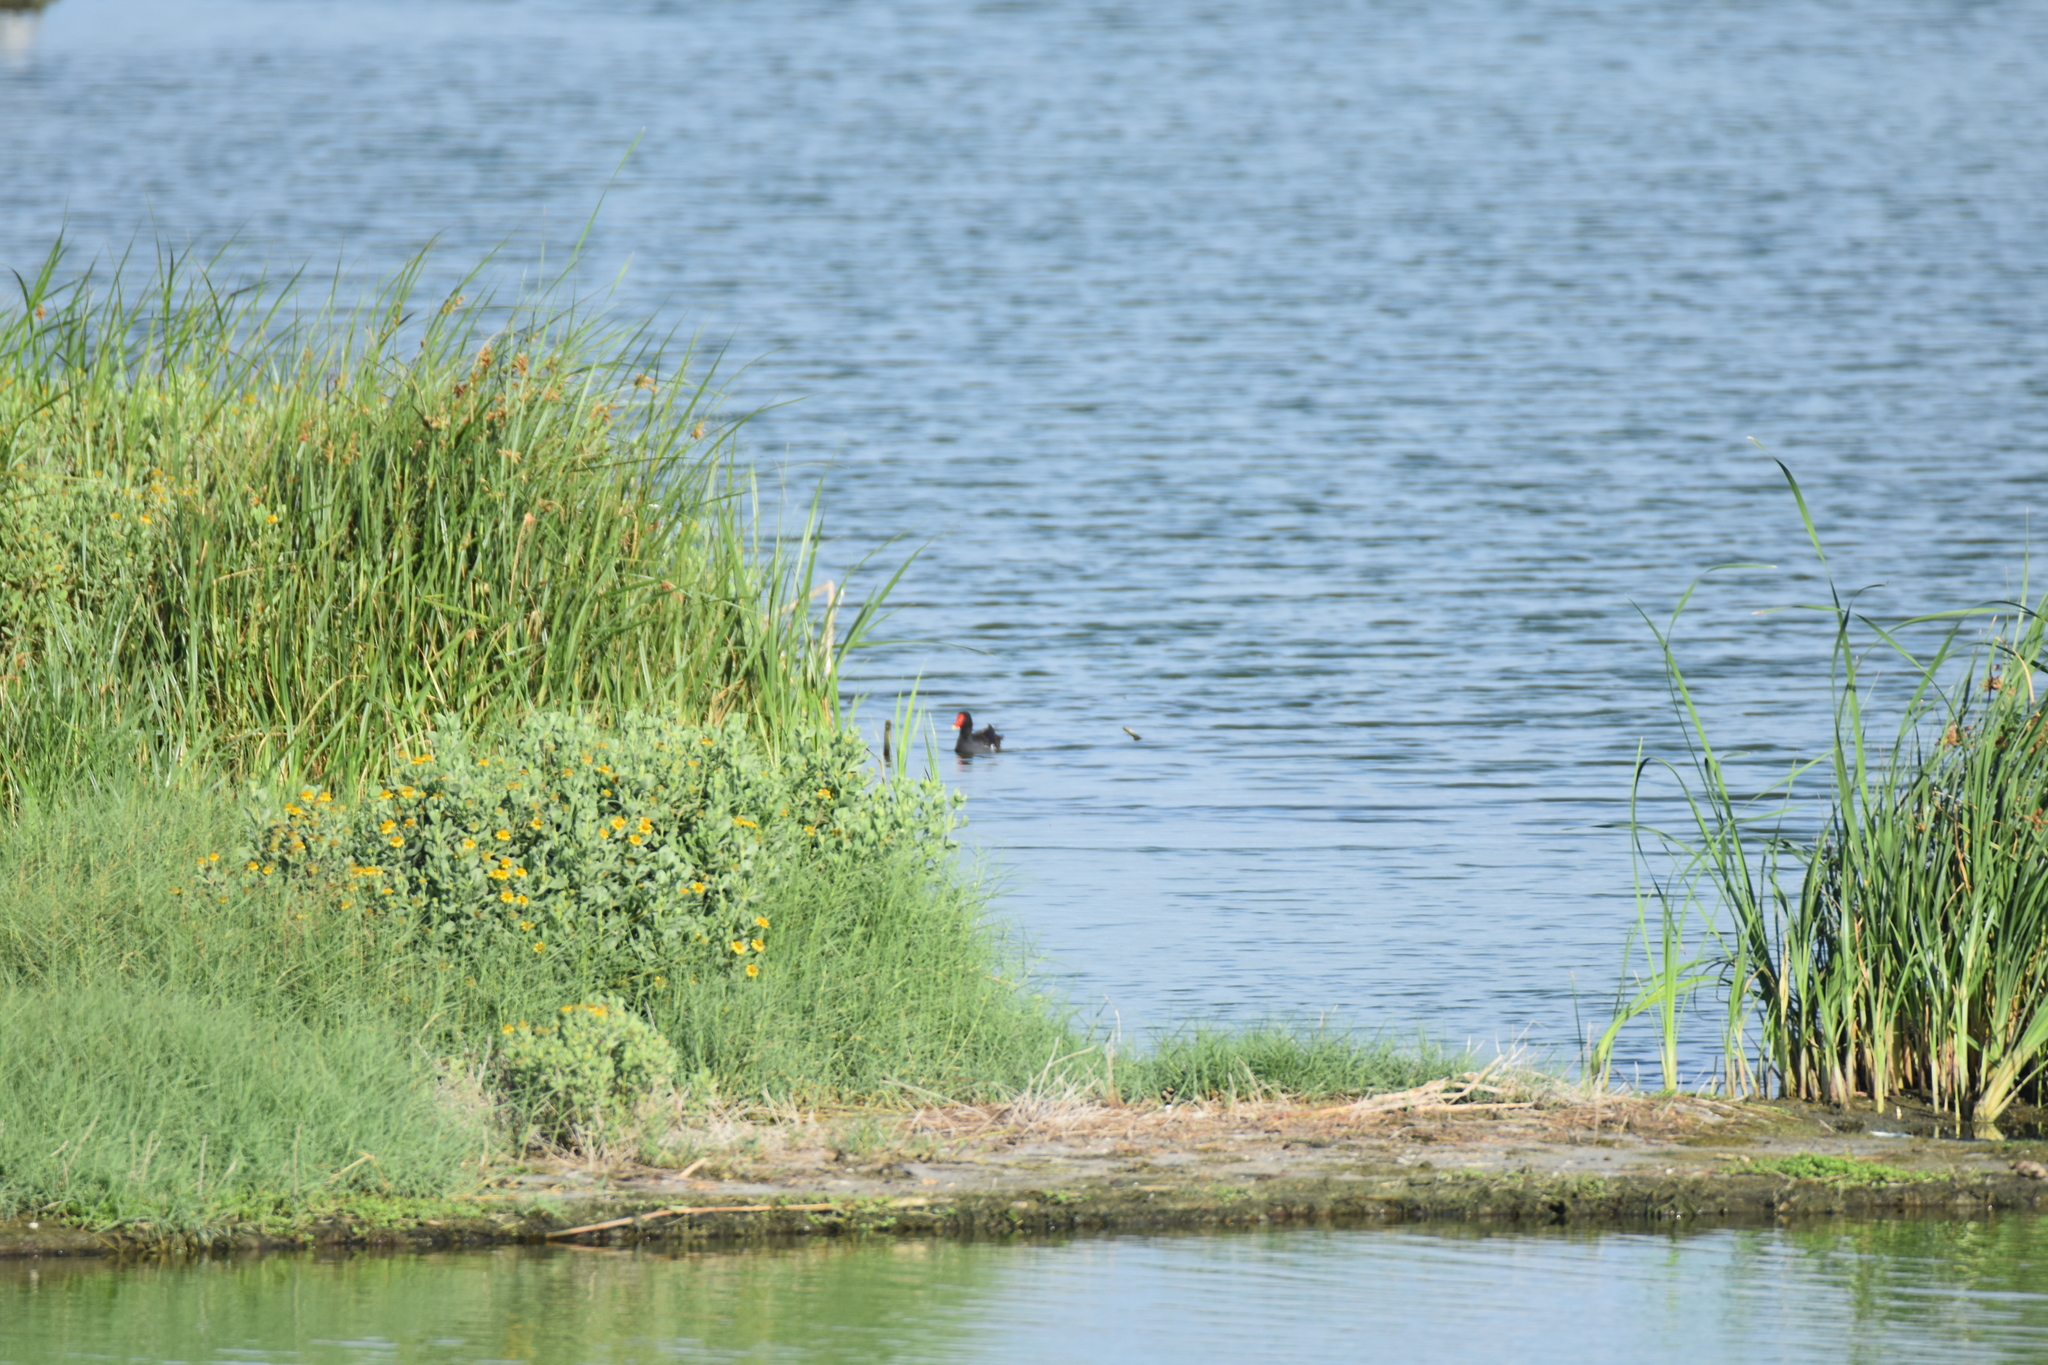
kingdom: Animalia
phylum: Chordata
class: Aves
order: Gruiformes
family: Rallidae
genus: Gallinula
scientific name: Gallinula chloropus
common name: Common moorhen
